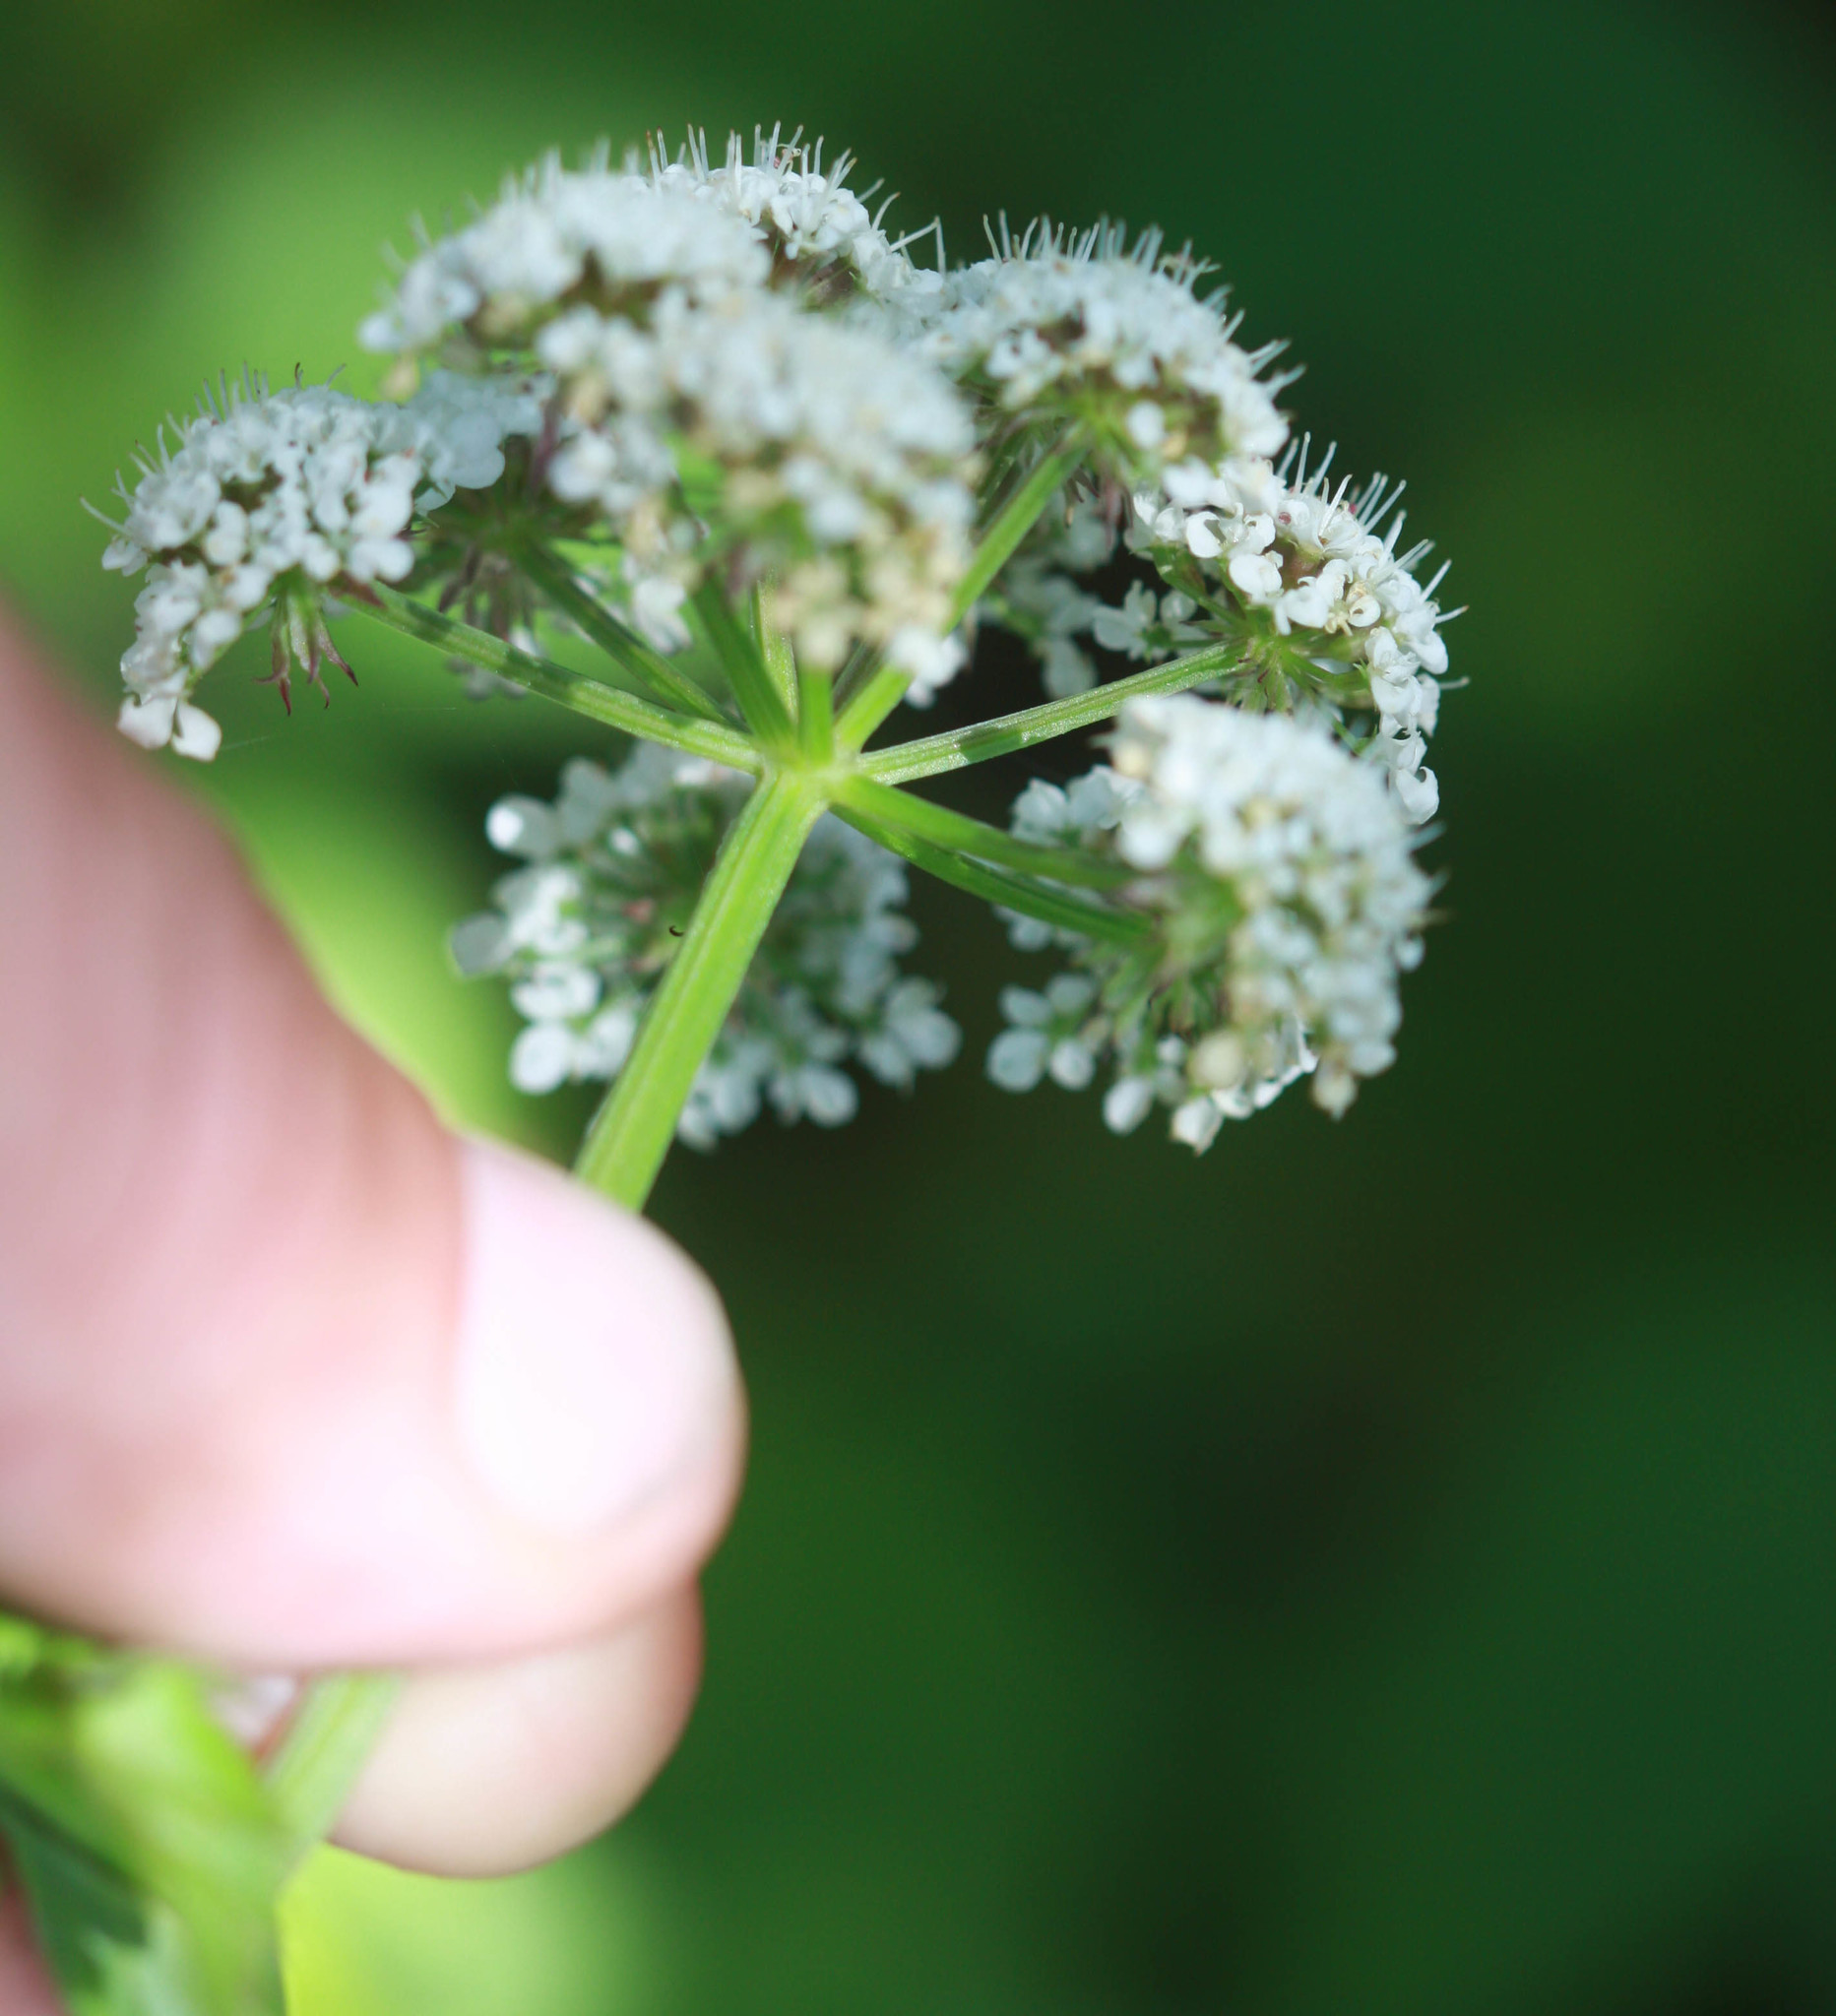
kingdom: Plantae
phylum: Tracheophyta
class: Magnoliopsida
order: Apiales
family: Apiaceae
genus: Oenanthe
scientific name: Oenanthe sarmentosa
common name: American water-parsley
